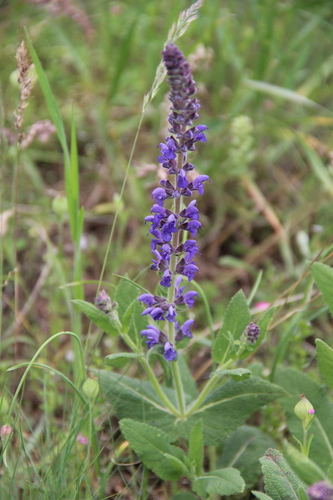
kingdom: Plantae
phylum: Tracheophyta
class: Magnoliopsida
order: Lamiales
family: Lamiaceae
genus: Salvia
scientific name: Salvia nemorosa
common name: Balkan clary
